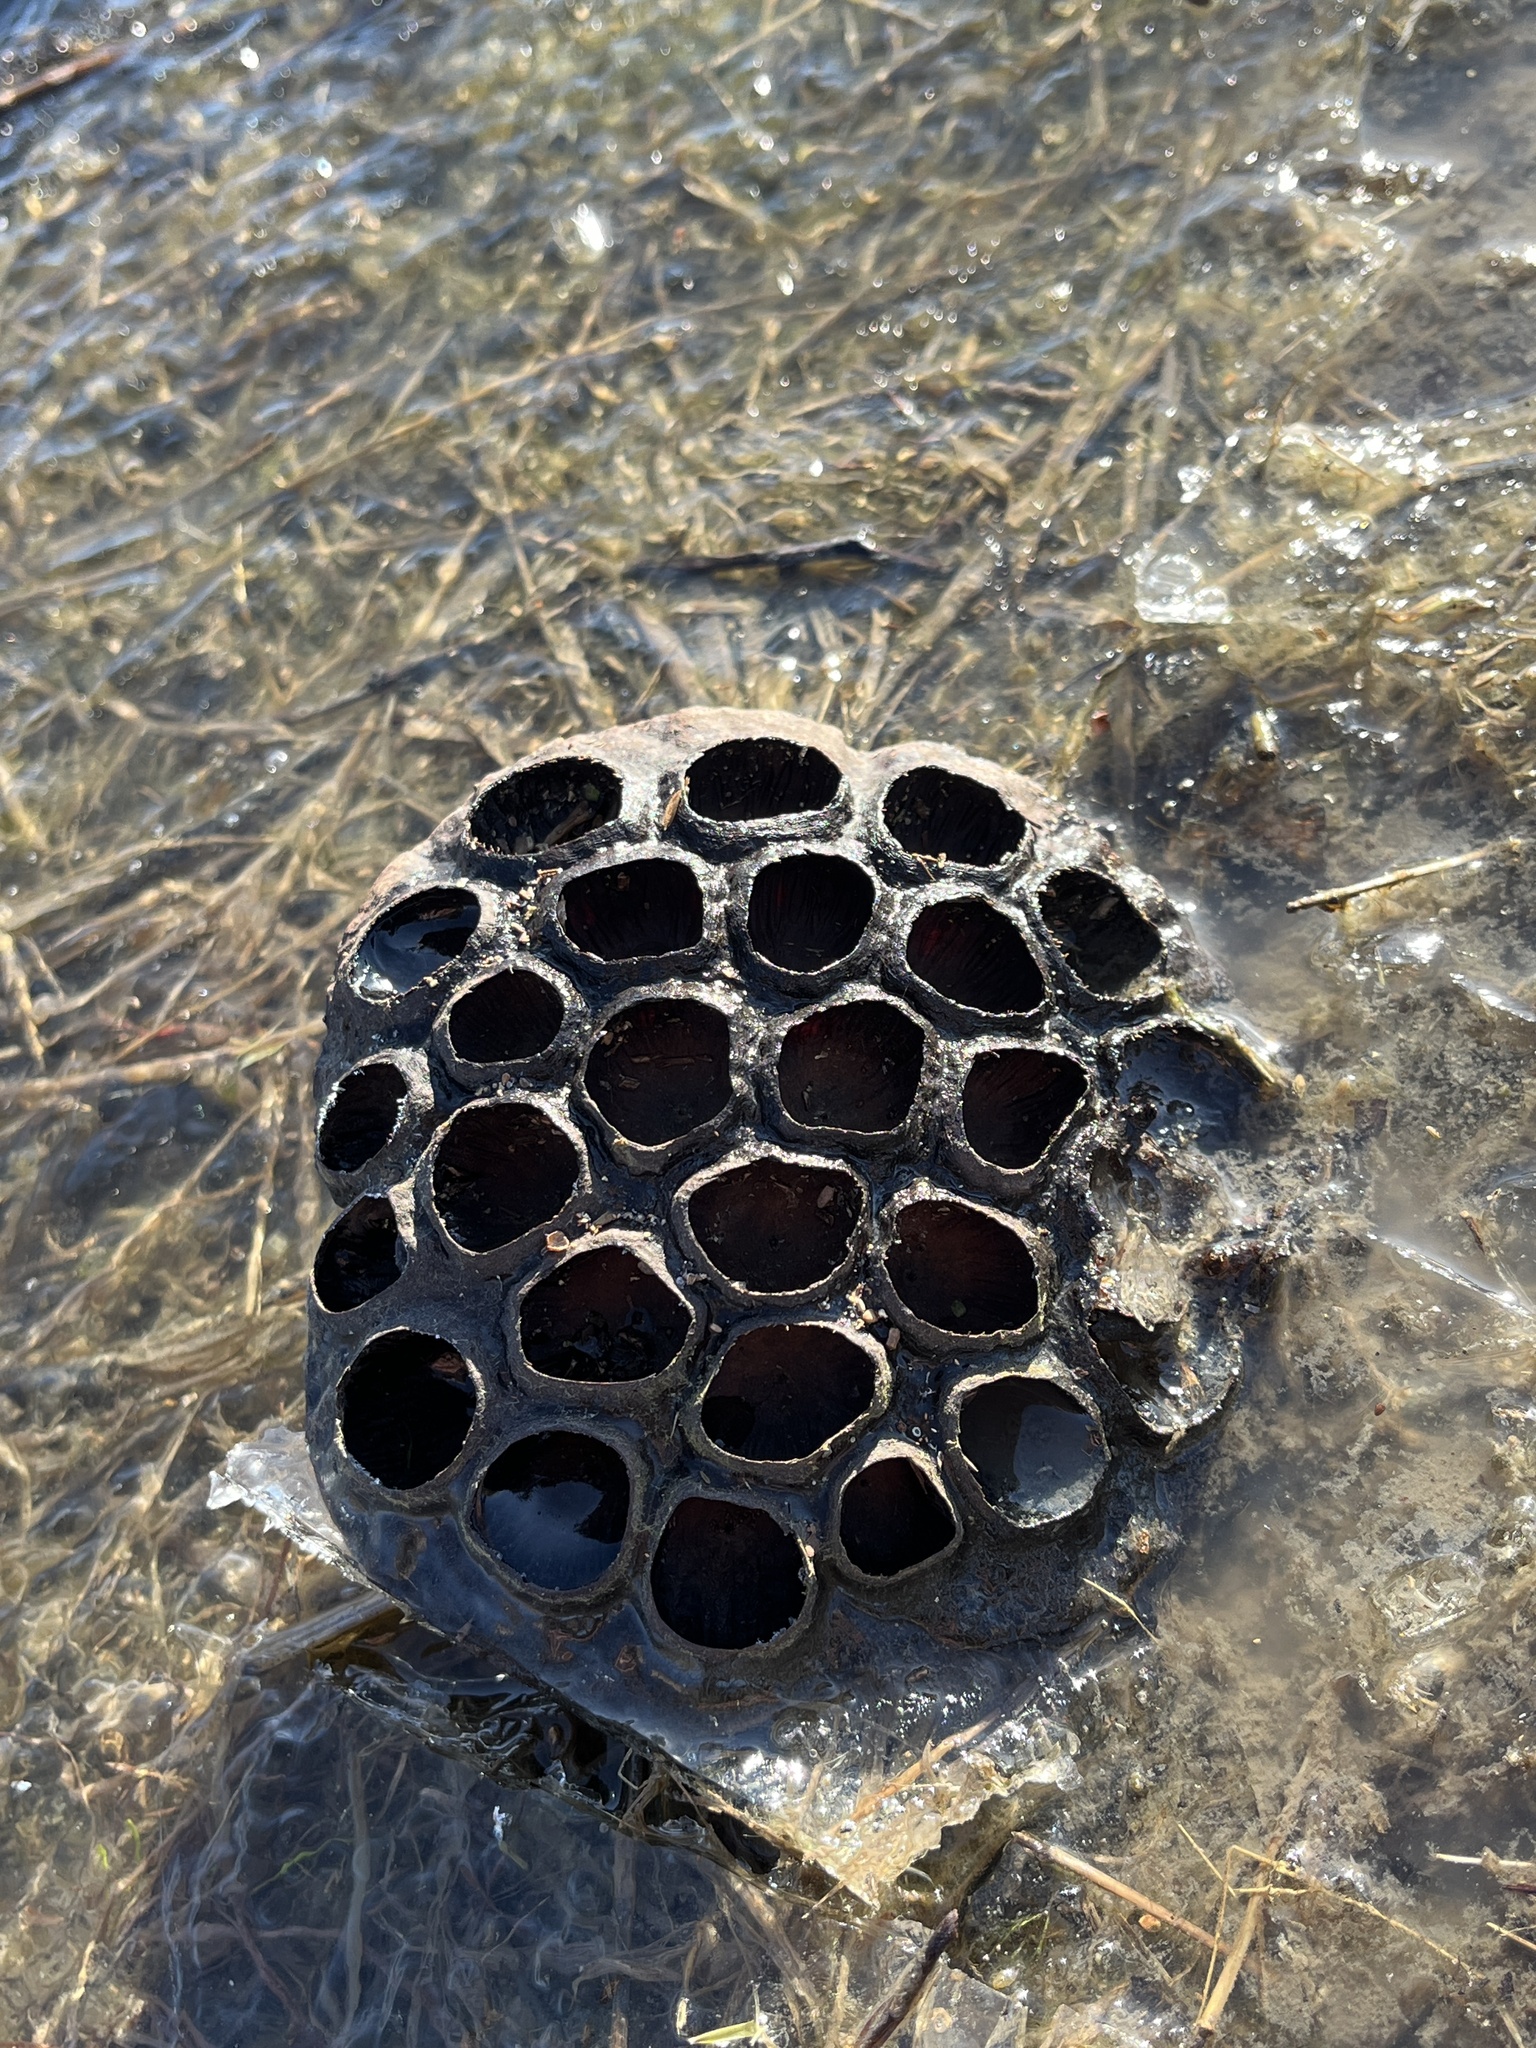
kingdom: Plantae
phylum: Tracheophyta
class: Magnoliopsida
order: Proteales
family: Nelumbonaceae
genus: Nelumbo
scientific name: Nelumbo lutea
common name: American lotus
